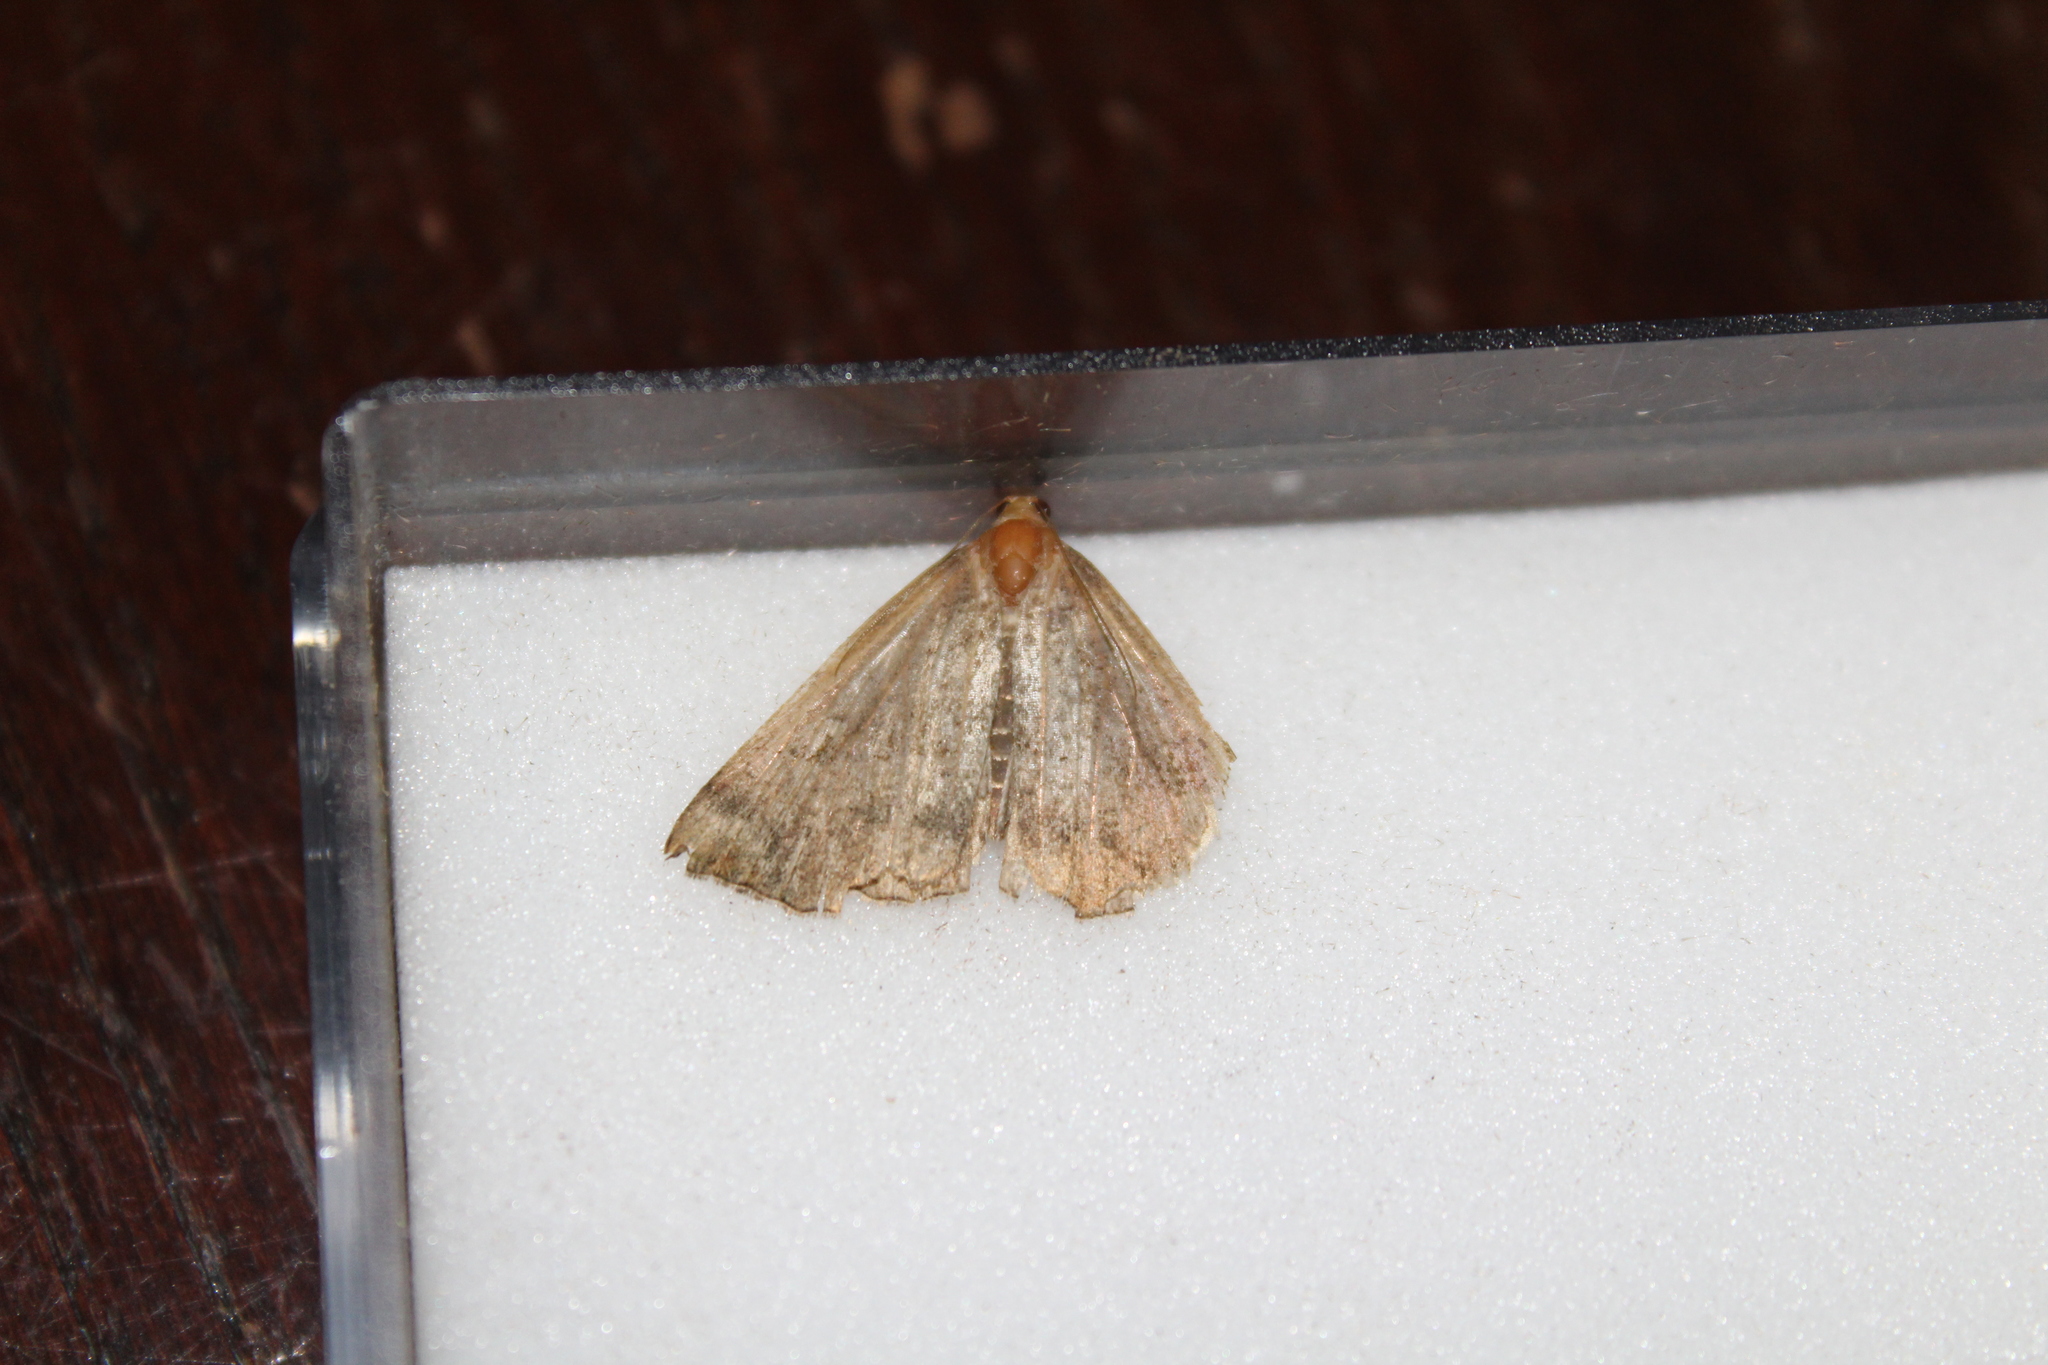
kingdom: Animalia
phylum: Arthropoda
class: Insecta
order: Lepidoptera
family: Erebidae
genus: Hypena
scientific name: Hypena proboscidalis
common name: Snout
